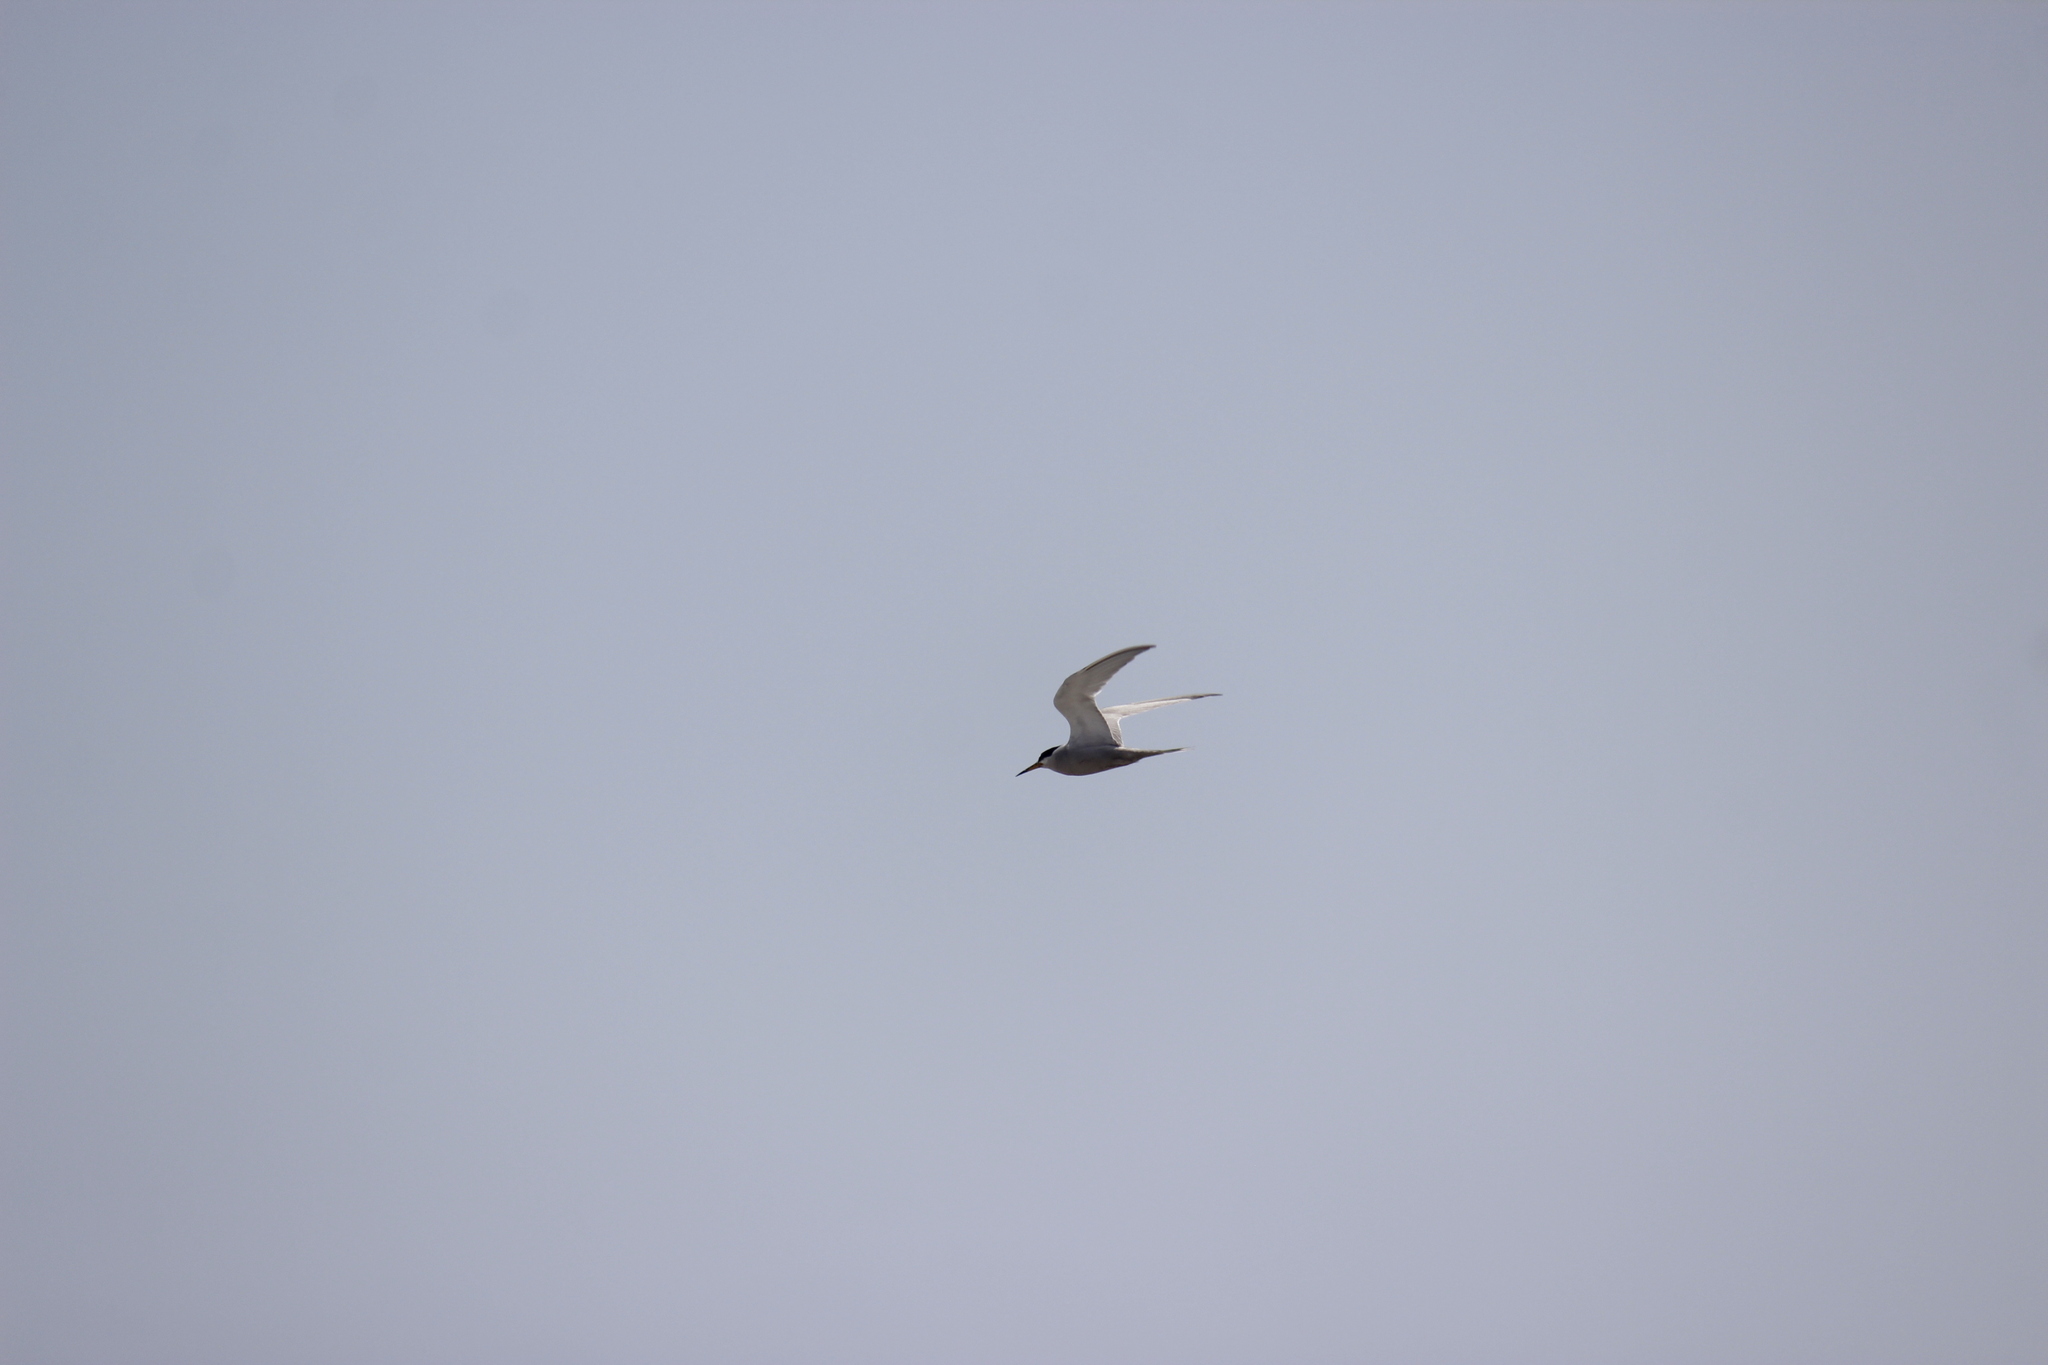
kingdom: Animalia
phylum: Chordata
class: Aves
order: Charadriiformes
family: Laridae
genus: Sternula
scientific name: Sternula lorata
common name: Peruvian tern
